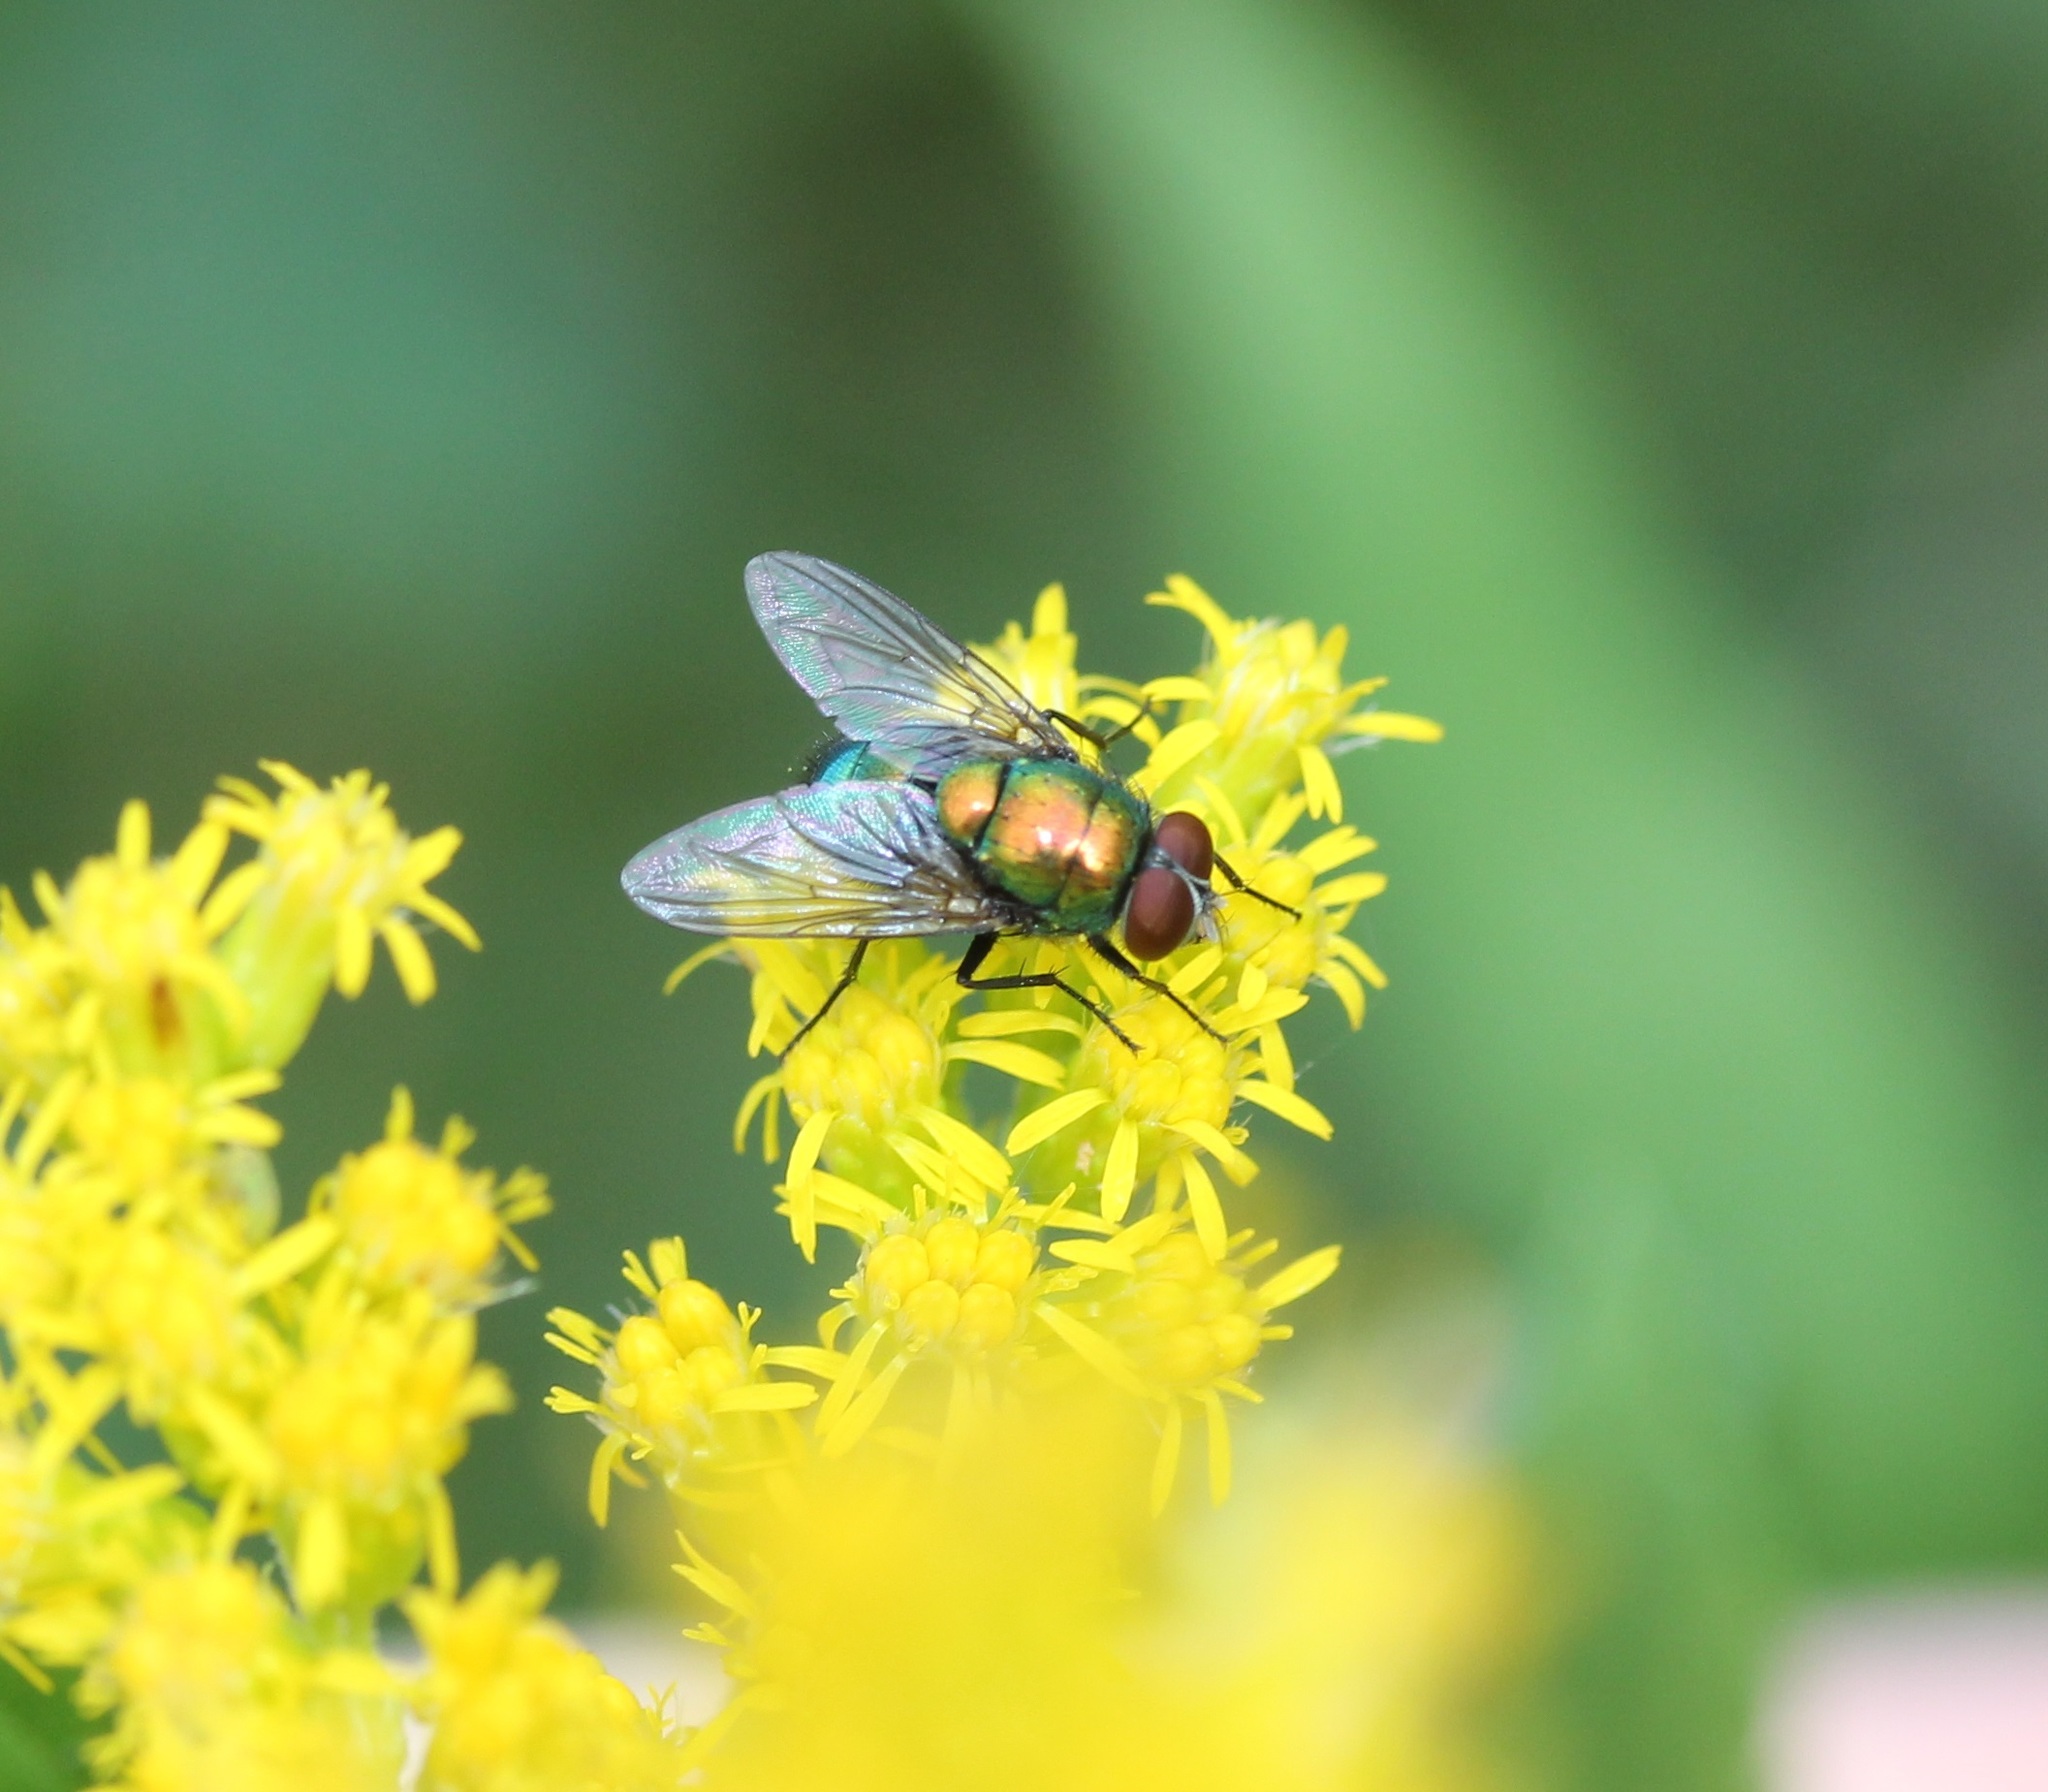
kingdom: Animalia
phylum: Arthropoda
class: Insecta
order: Diptera
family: Calliphoridae
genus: Lucilia
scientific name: Lucilia caeruleiviridis
